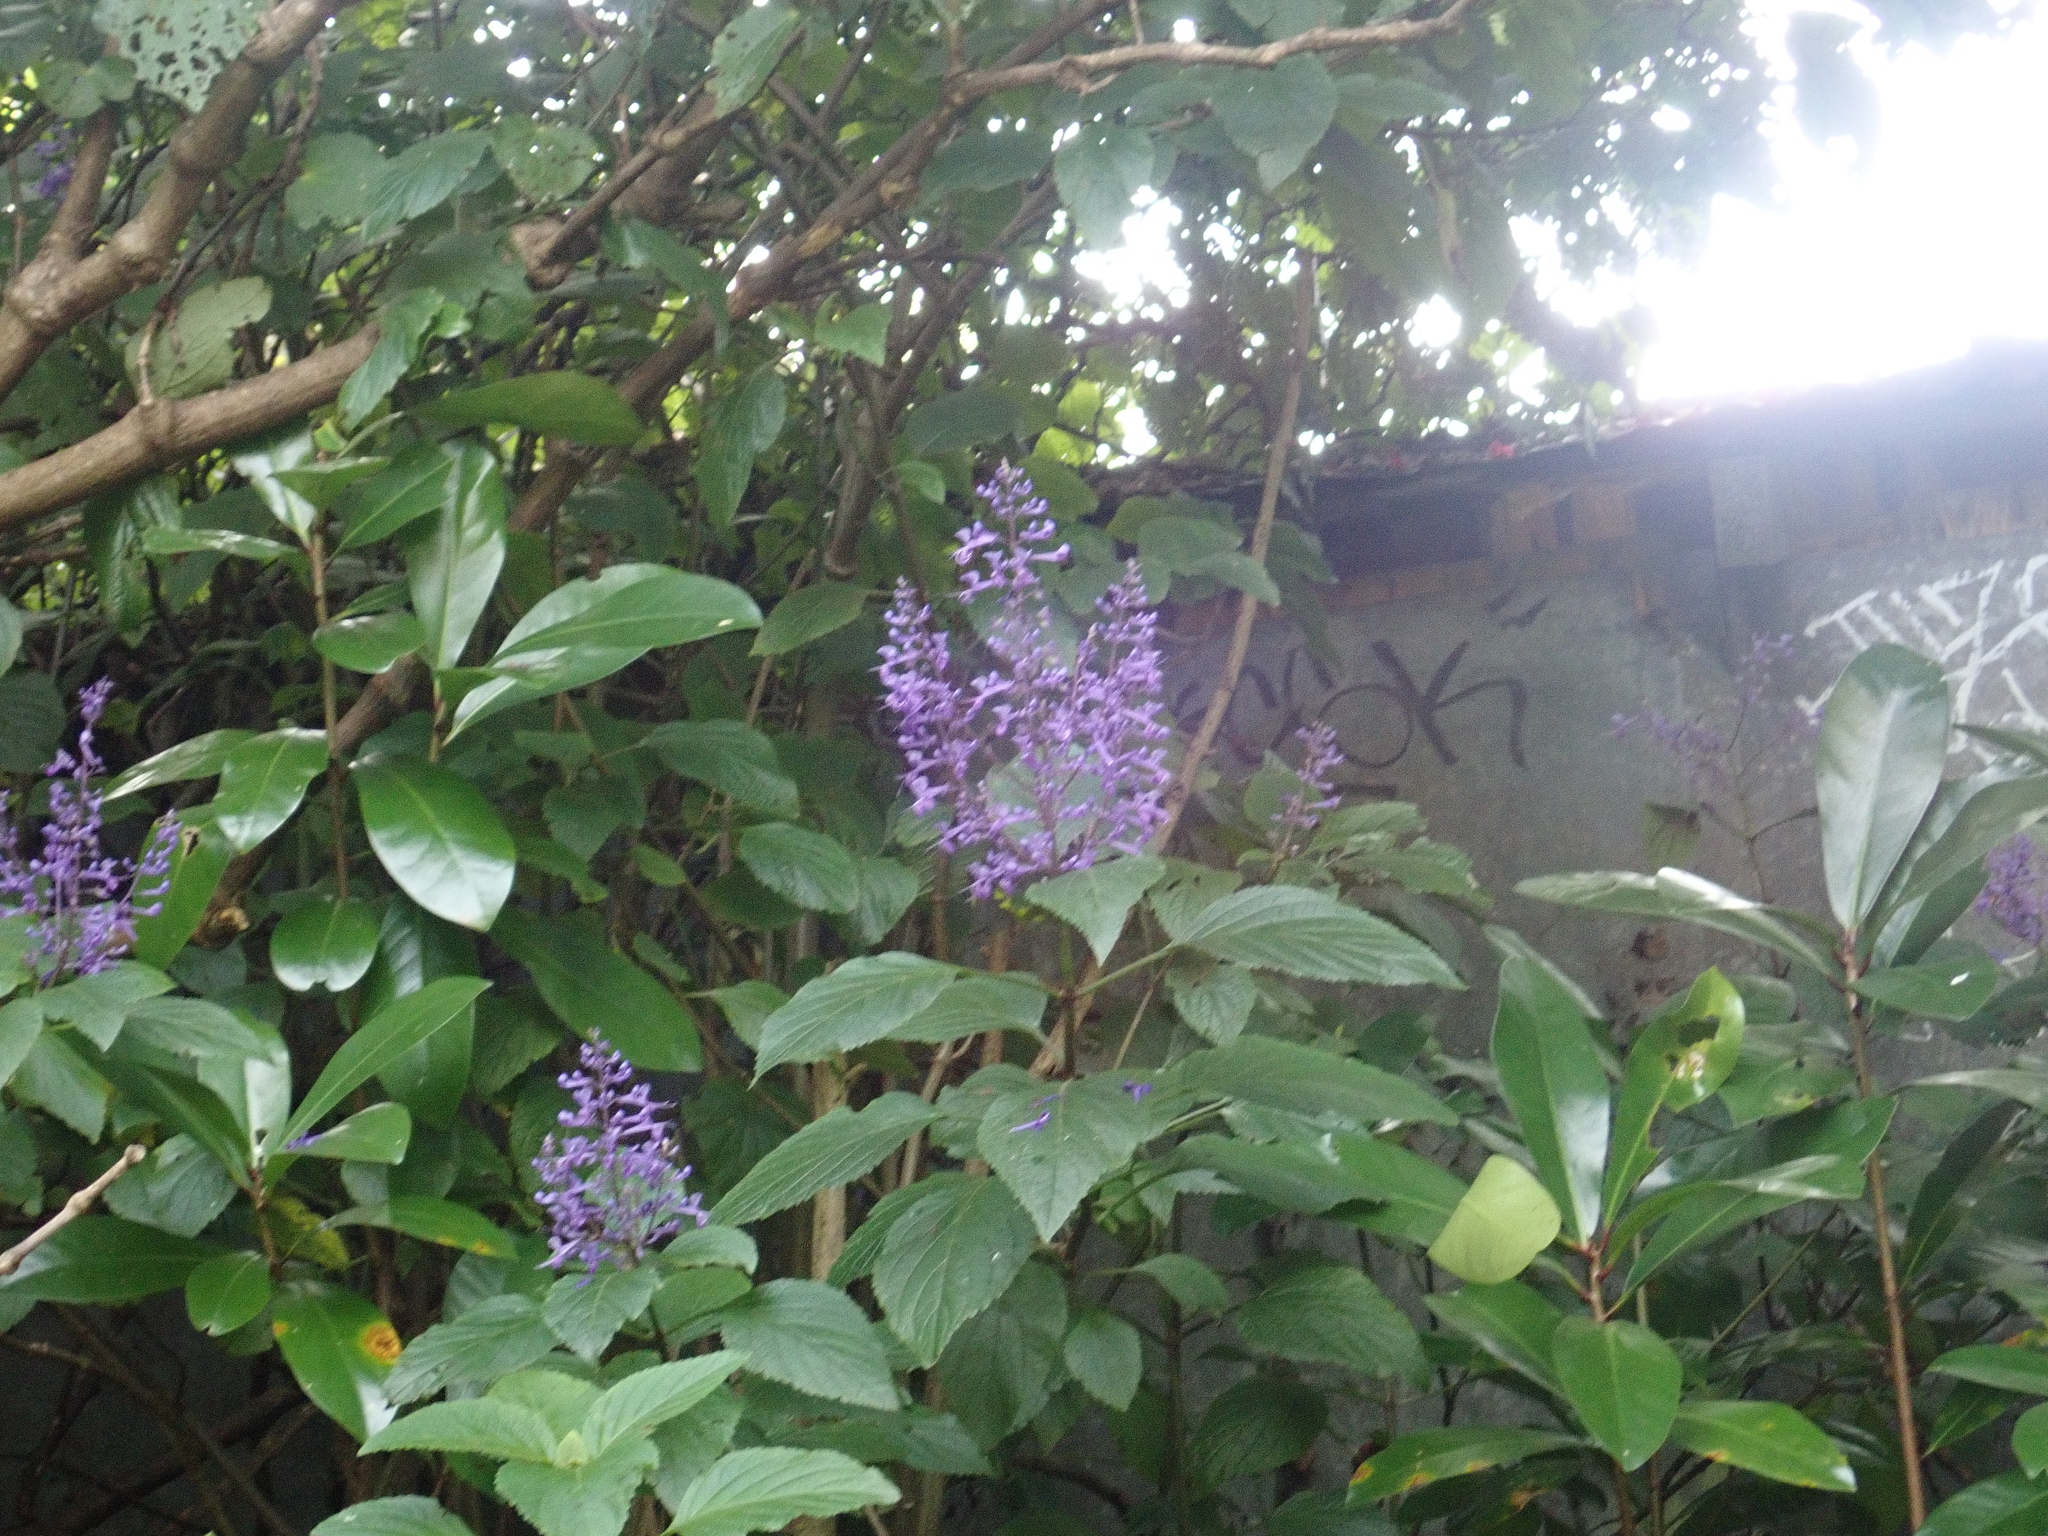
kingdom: Plantae
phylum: Tracheophyta
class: Magnoliopsida
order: Lamiales
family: Lamiaceae
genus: Plectranthus
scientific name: Plectranthus ecklonii
